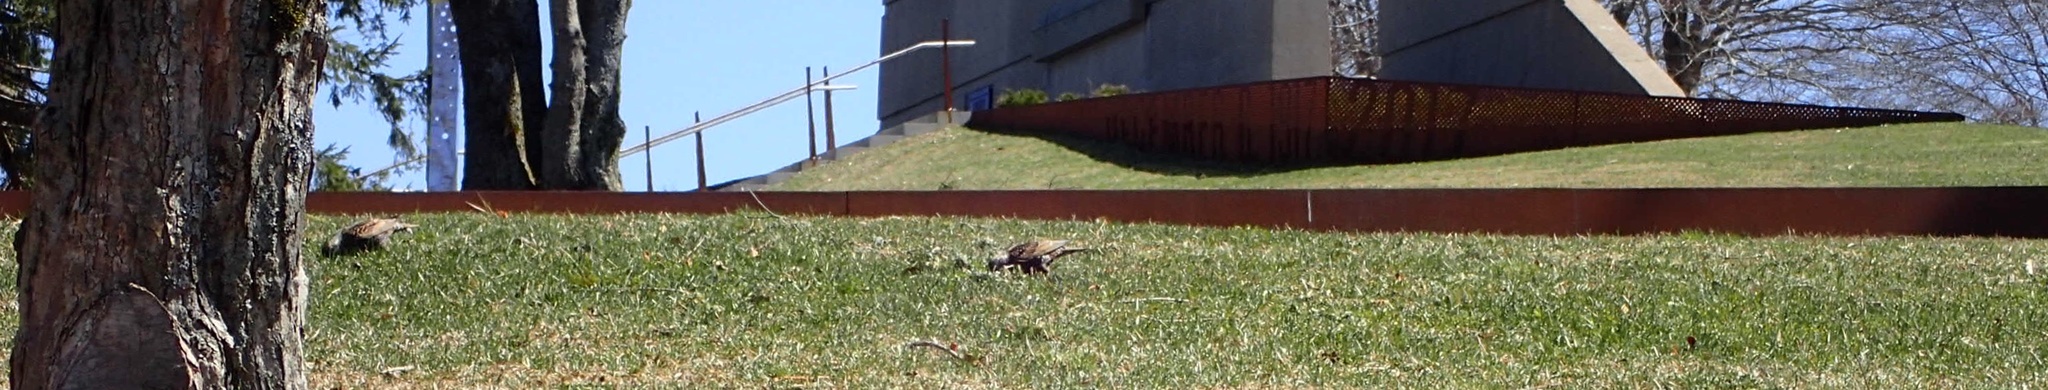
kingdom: Animalia
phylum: Chordata
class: Aves
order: Passeriformes
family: Sturnidae
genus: Sturnus
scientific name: Sturnus vulgaris
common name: Common starling
